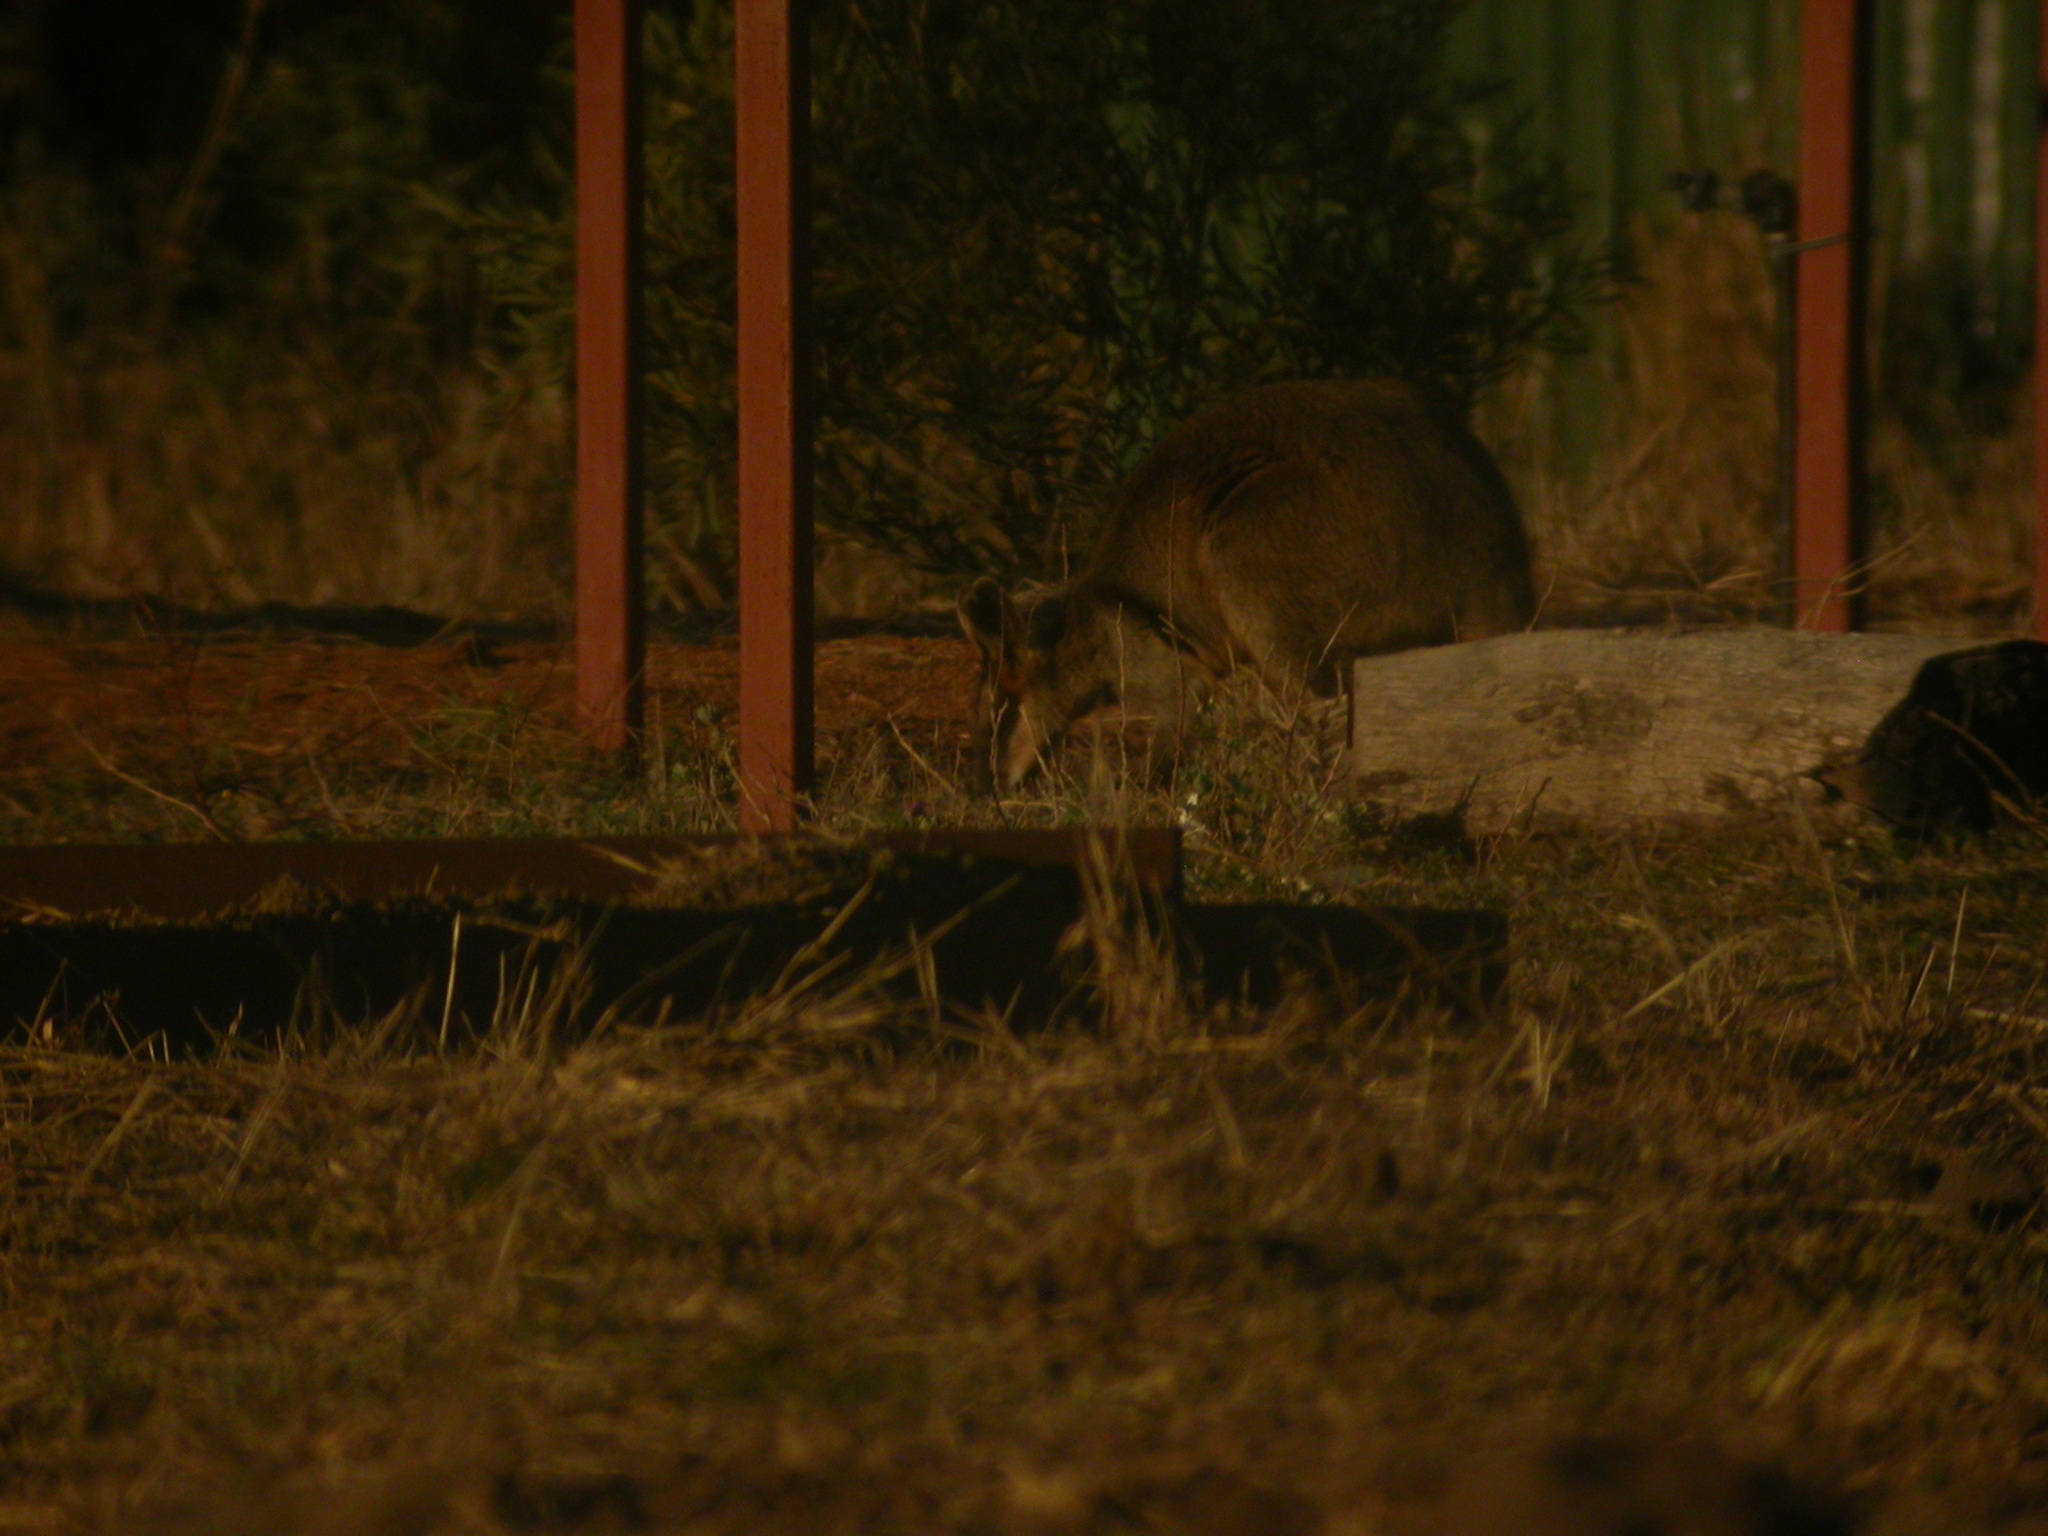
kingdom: Animalia
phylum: Chordata
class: Mammalia
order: Diprotodontia
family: Macropodidae
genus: Wallabia
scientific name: Wallabia bicolor
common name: Swamp wallaby
